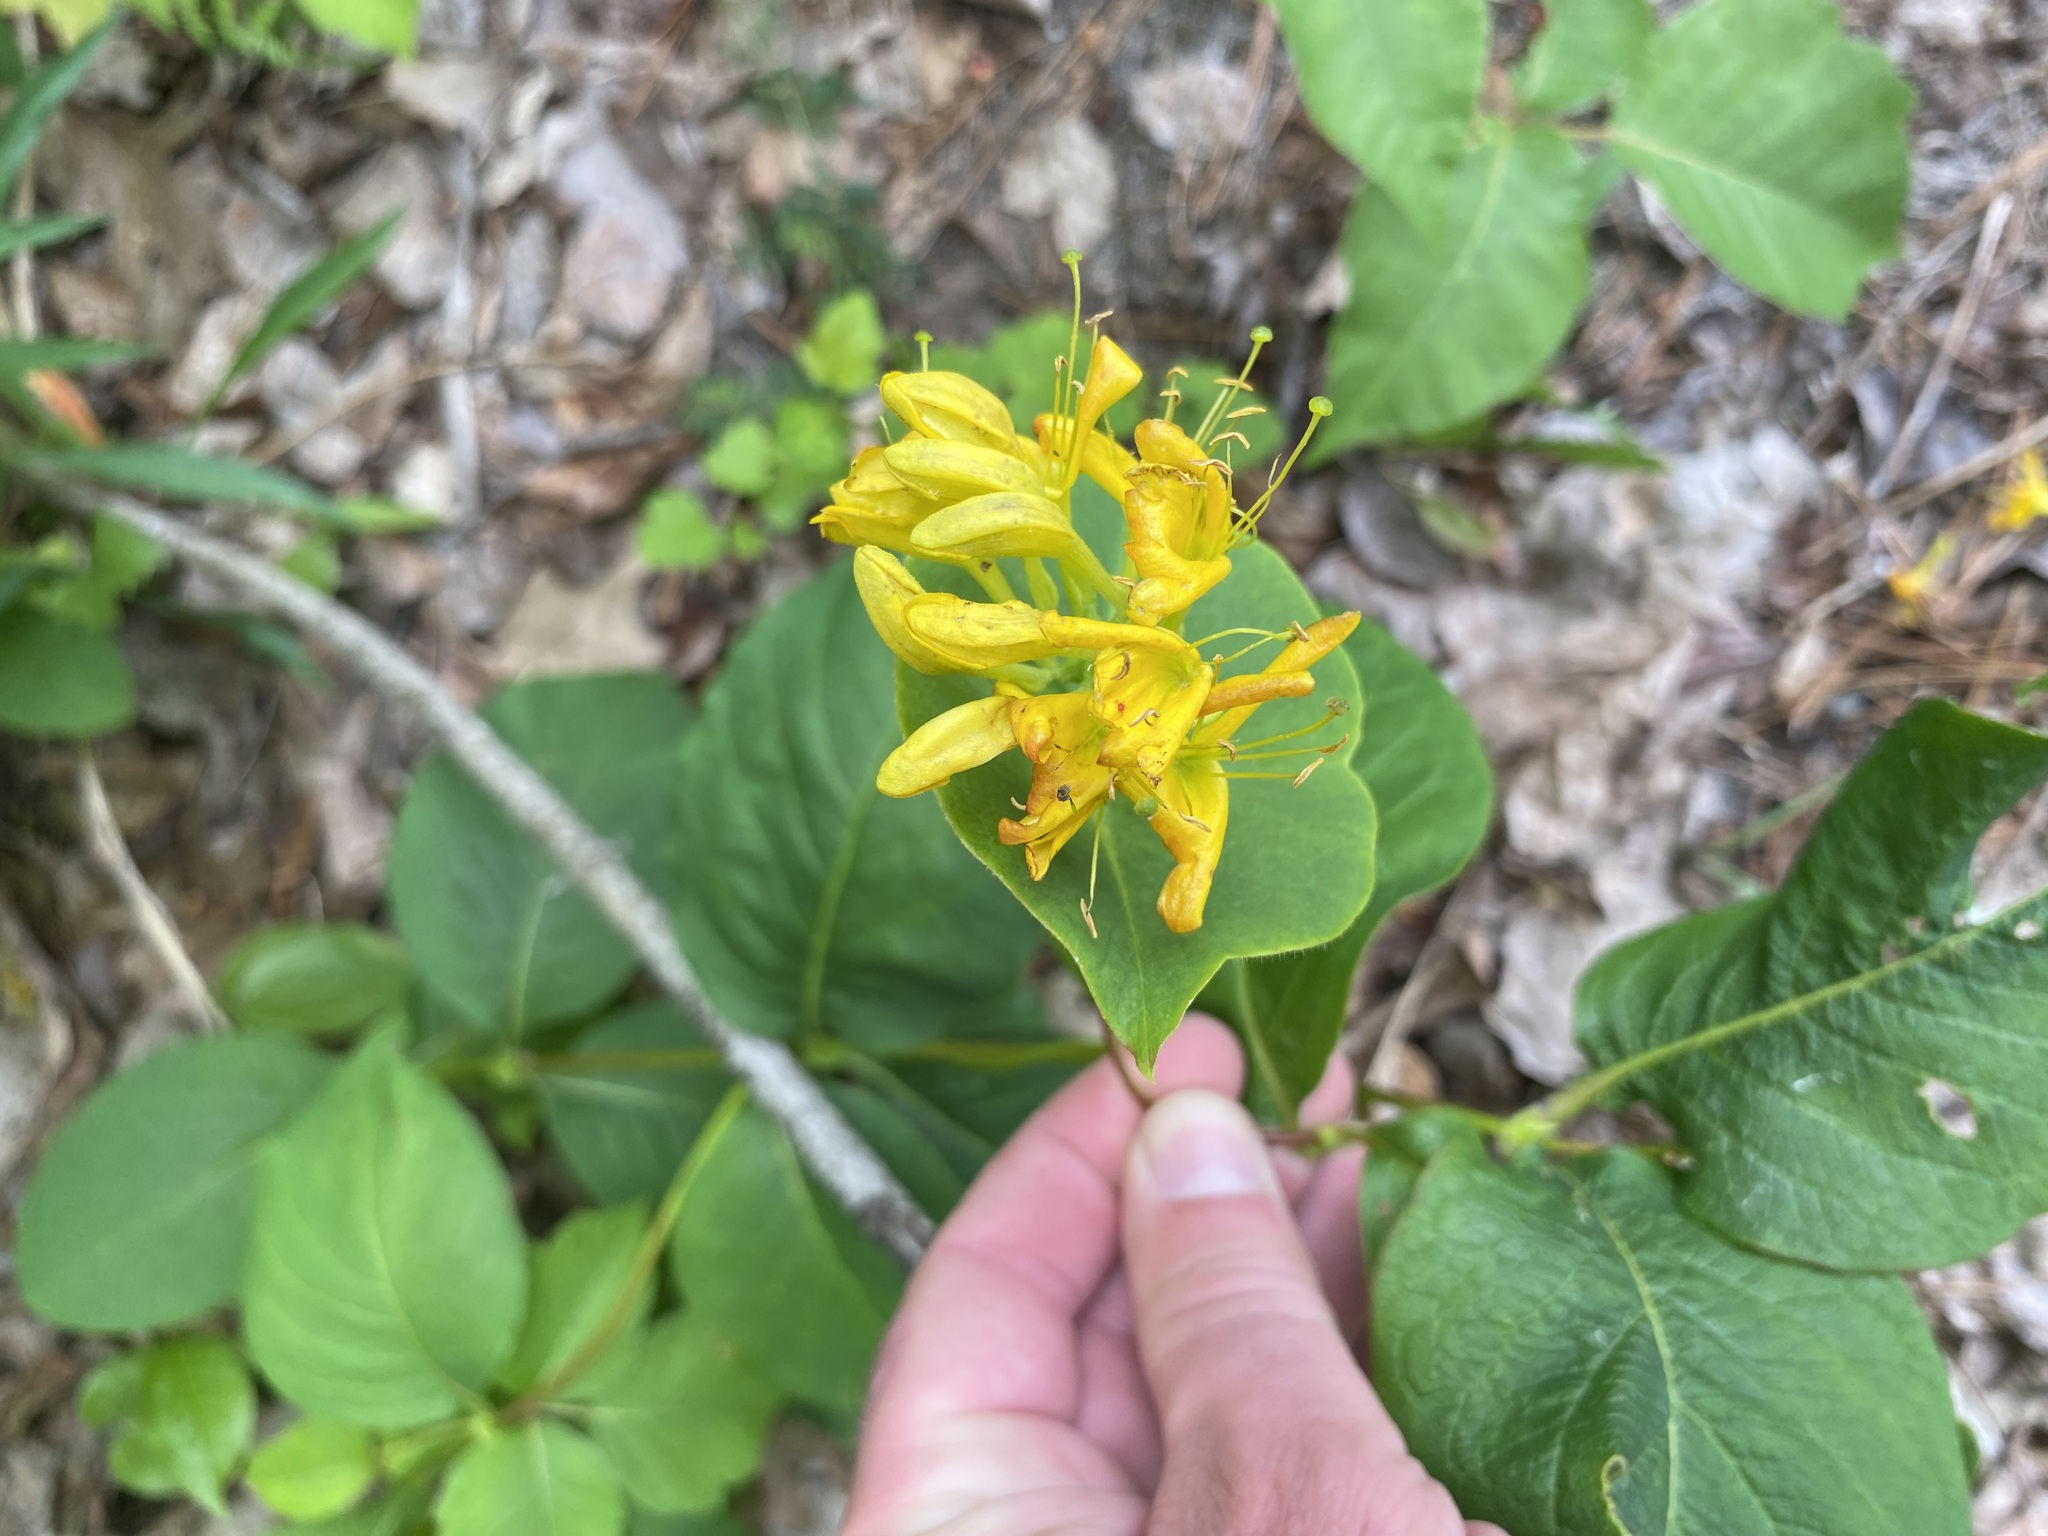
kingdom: Plantae
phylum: Tracheophyta
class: Magnoliopsida
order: Dipsacales
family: Caprifoliaceae
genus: Lonicera
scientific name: Lonicera hirsuta
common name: Hairy honeysuckle
